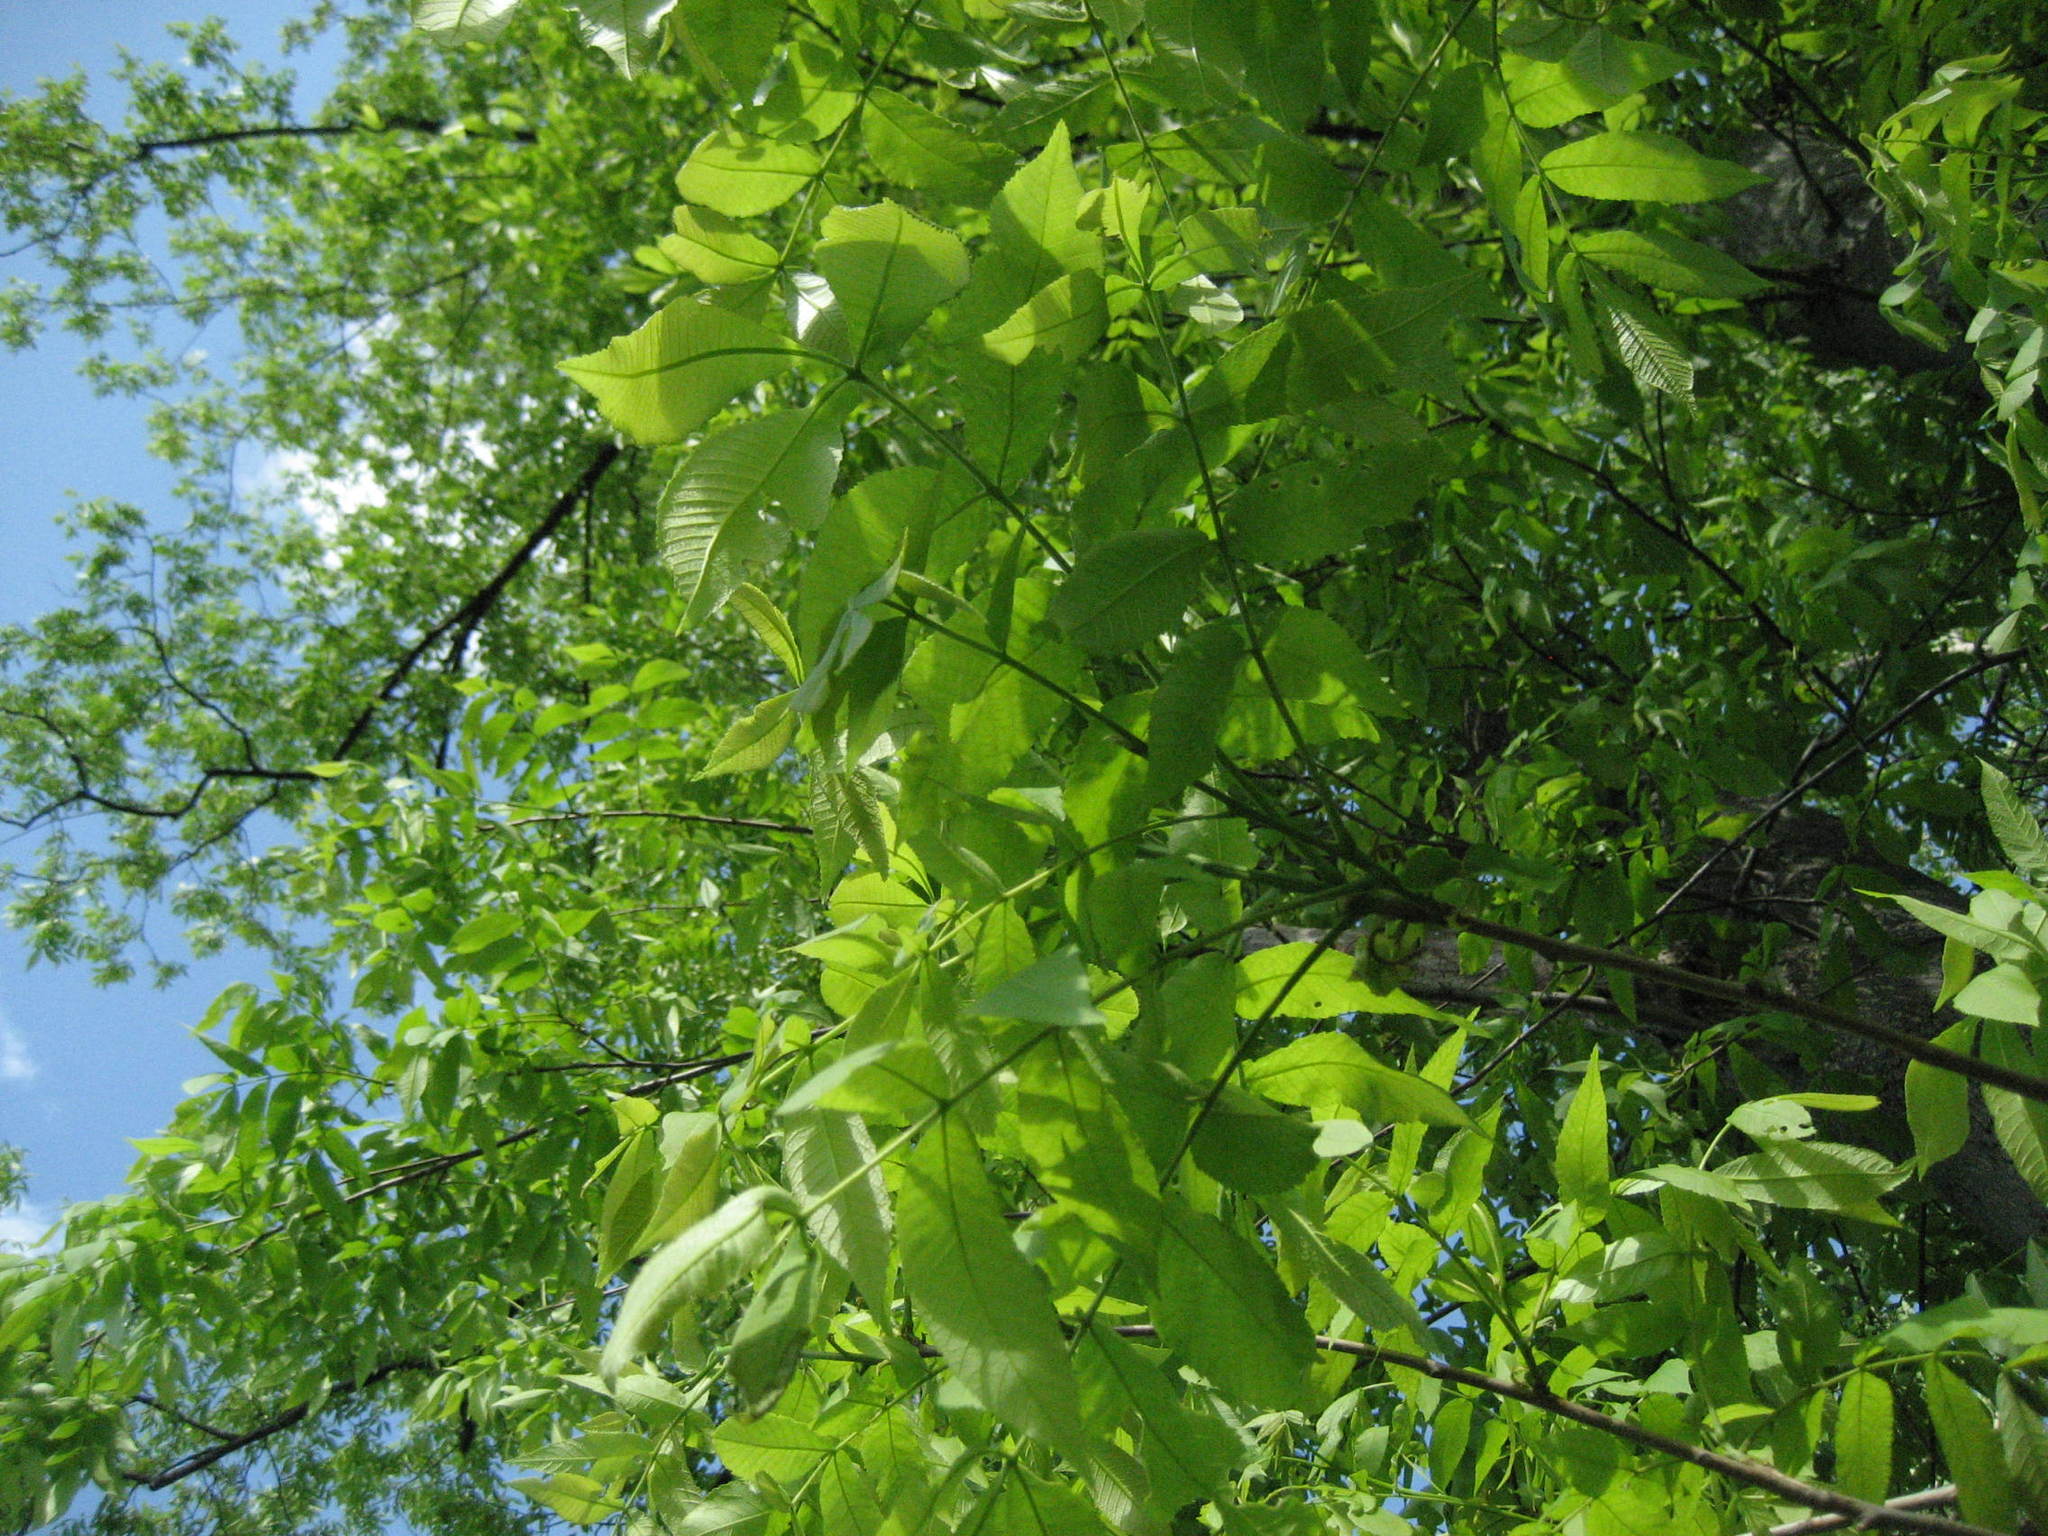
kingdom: Plantae
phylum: Tracheophyta
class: Magnoliopsida
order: Fagales
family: Juglandaceae
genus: Carya
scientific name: Carya cordiformis
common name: Bitternut hickory
